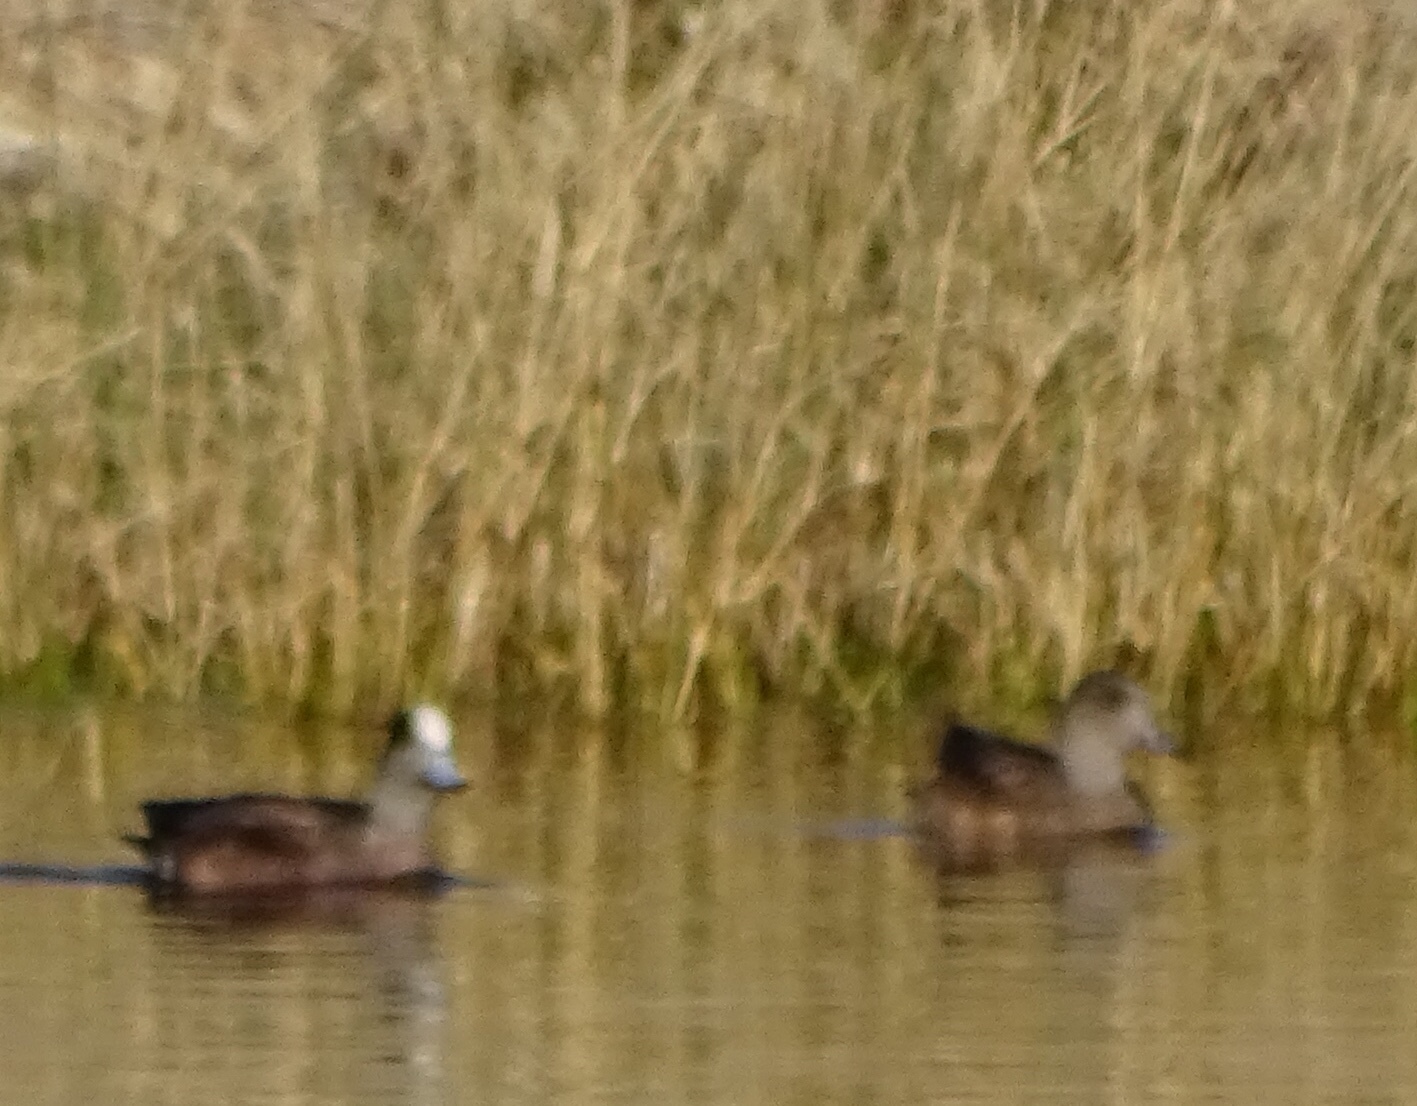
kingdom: Animalia
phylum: Chordata
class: Aves
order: Anseriformes
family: Anatidae
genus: Mareca
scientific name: Mareca americana
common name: American wigeon
